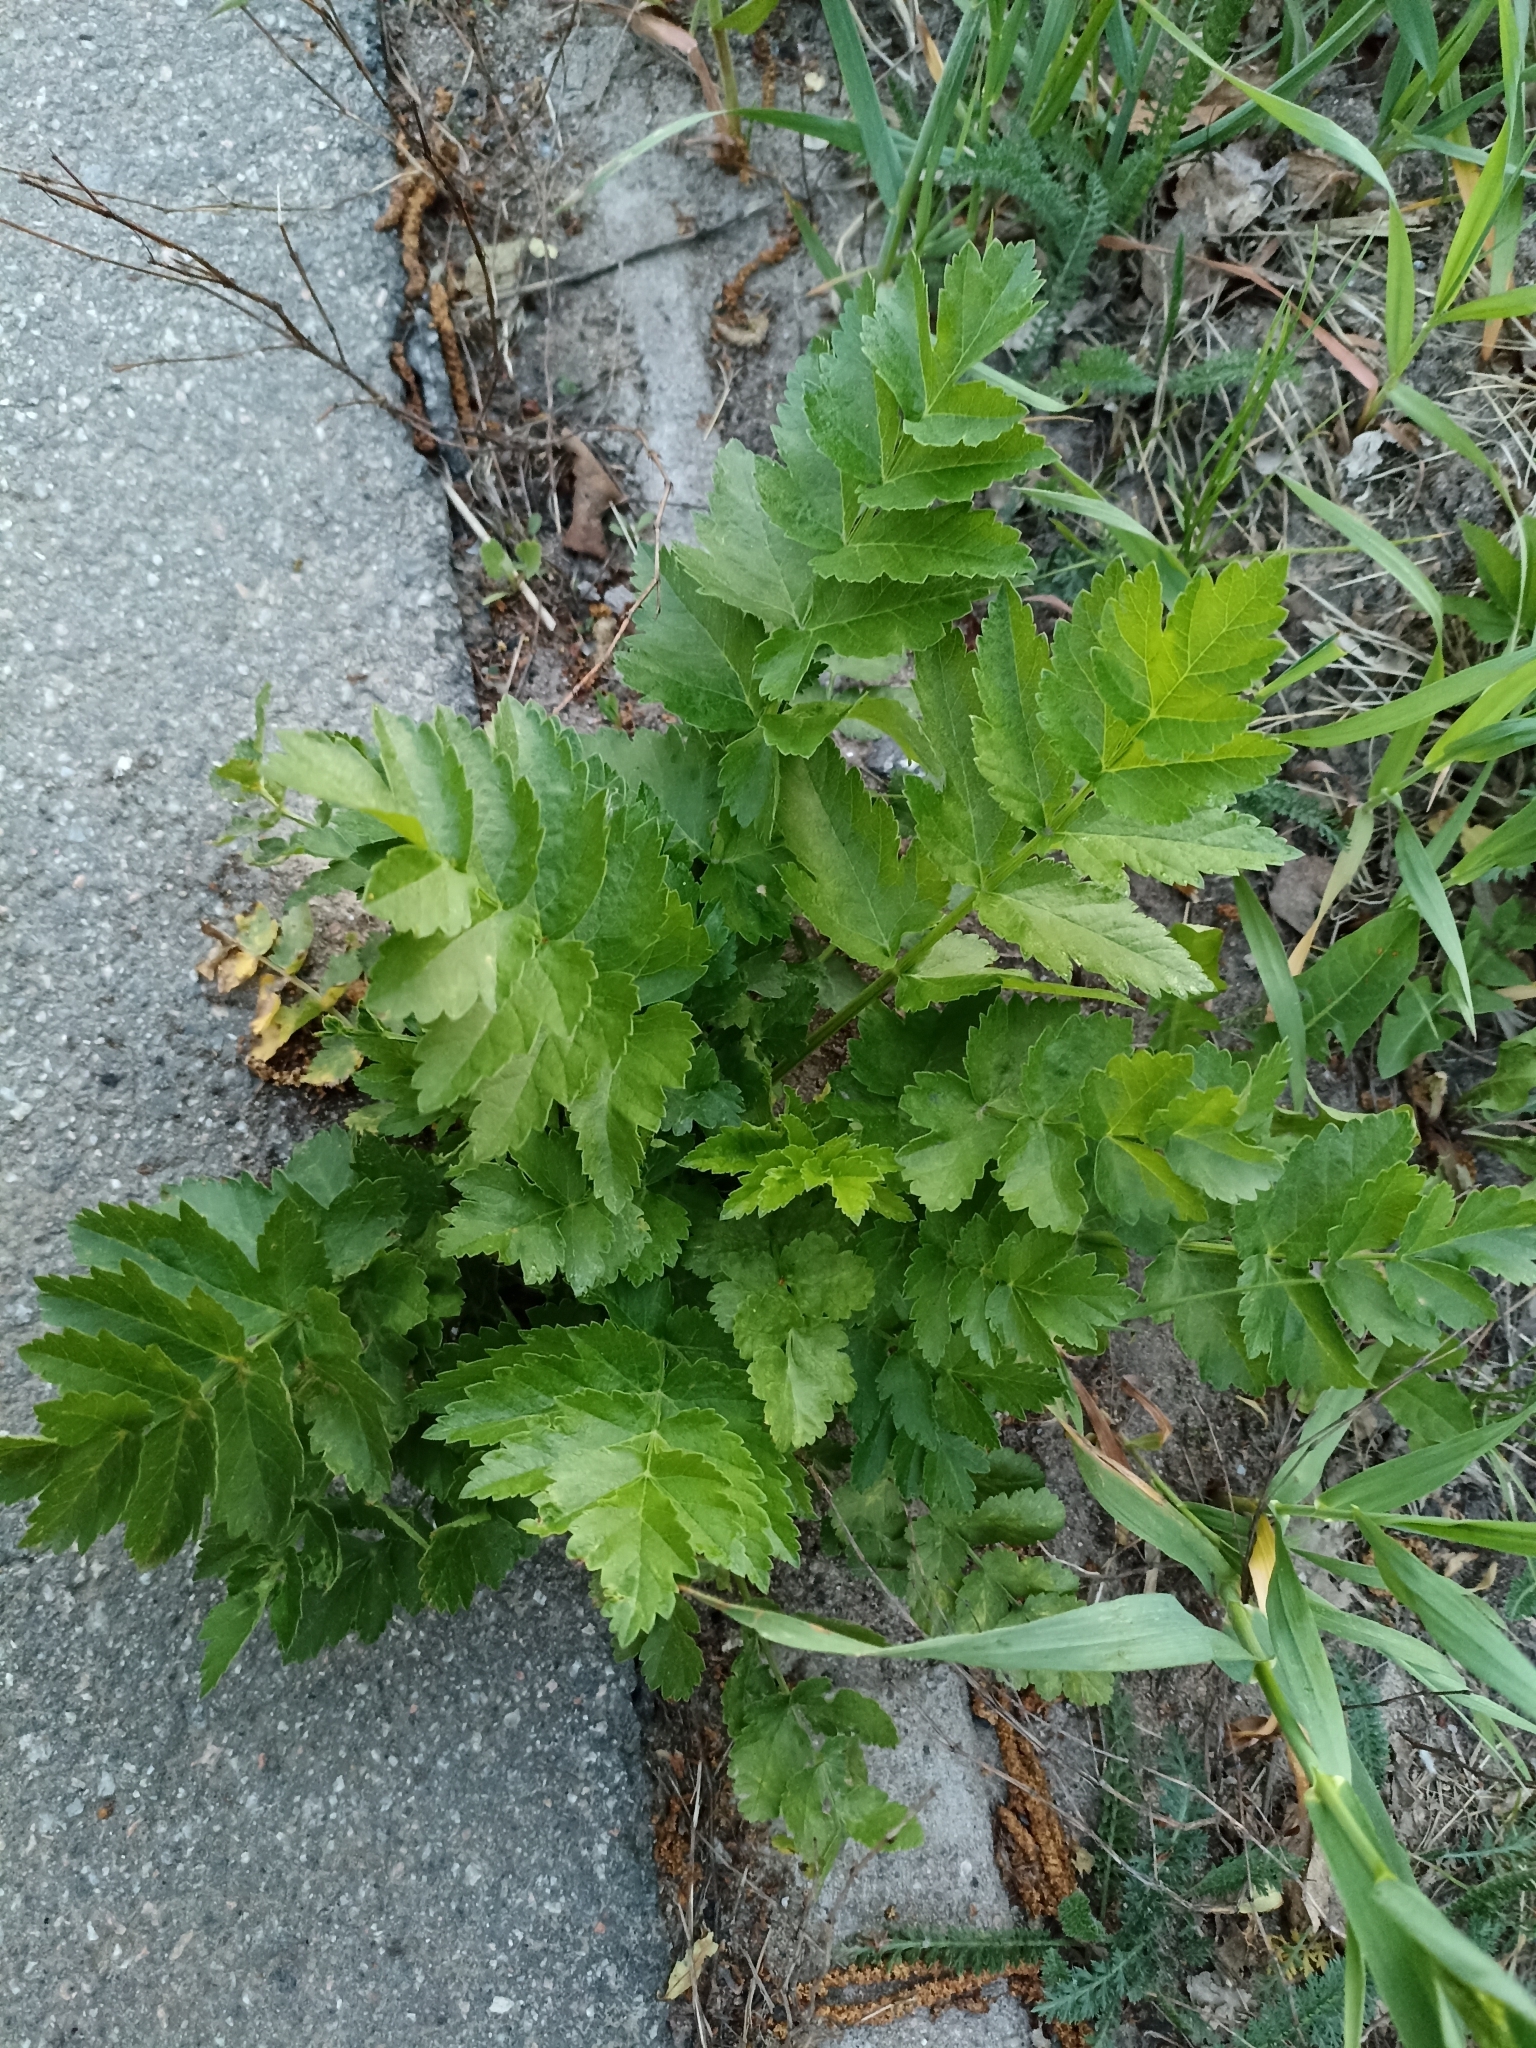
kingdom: Plantae
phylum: Tracheophyta
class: Magnoliopsida
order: Apiales
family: Apiaceae
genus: Pastinaca
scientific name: Pastinaca sativa
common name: Wild parsnip
